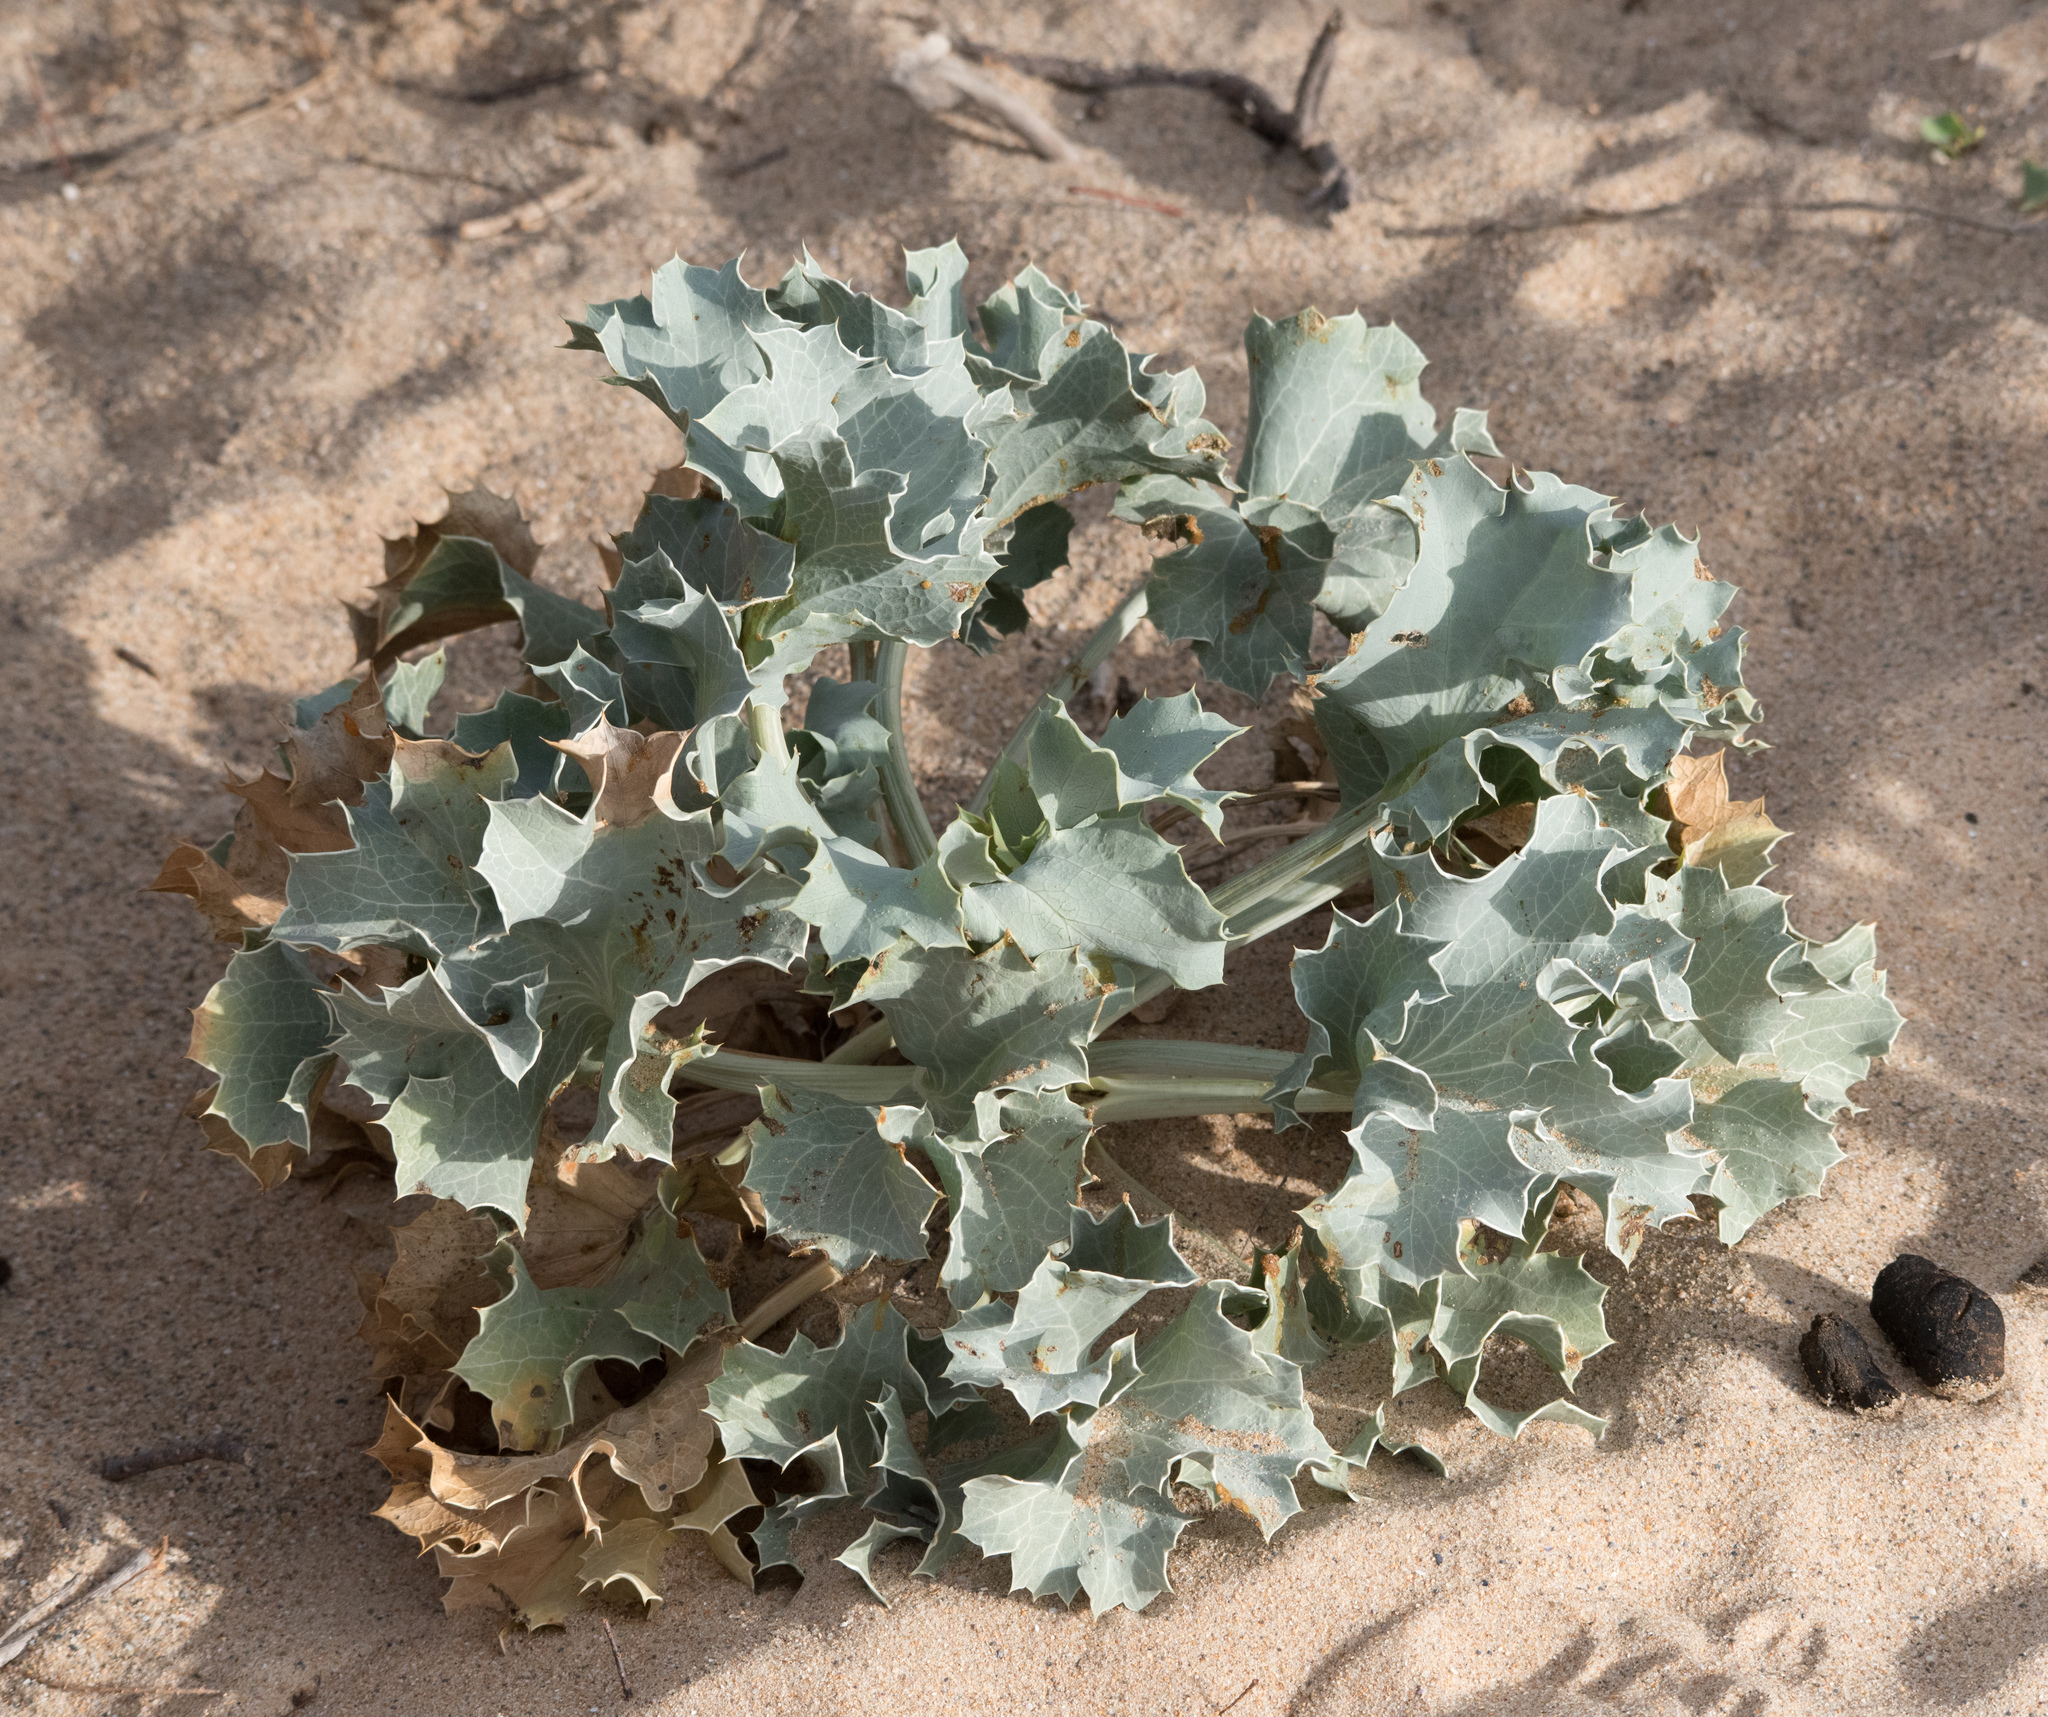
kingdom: Plantae
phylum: Tracheophyta
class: Magnoliopsida
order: Apiales
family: Apiaceae
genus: Eryngium
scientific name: Eryngium maritimum
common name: Sea-holly
